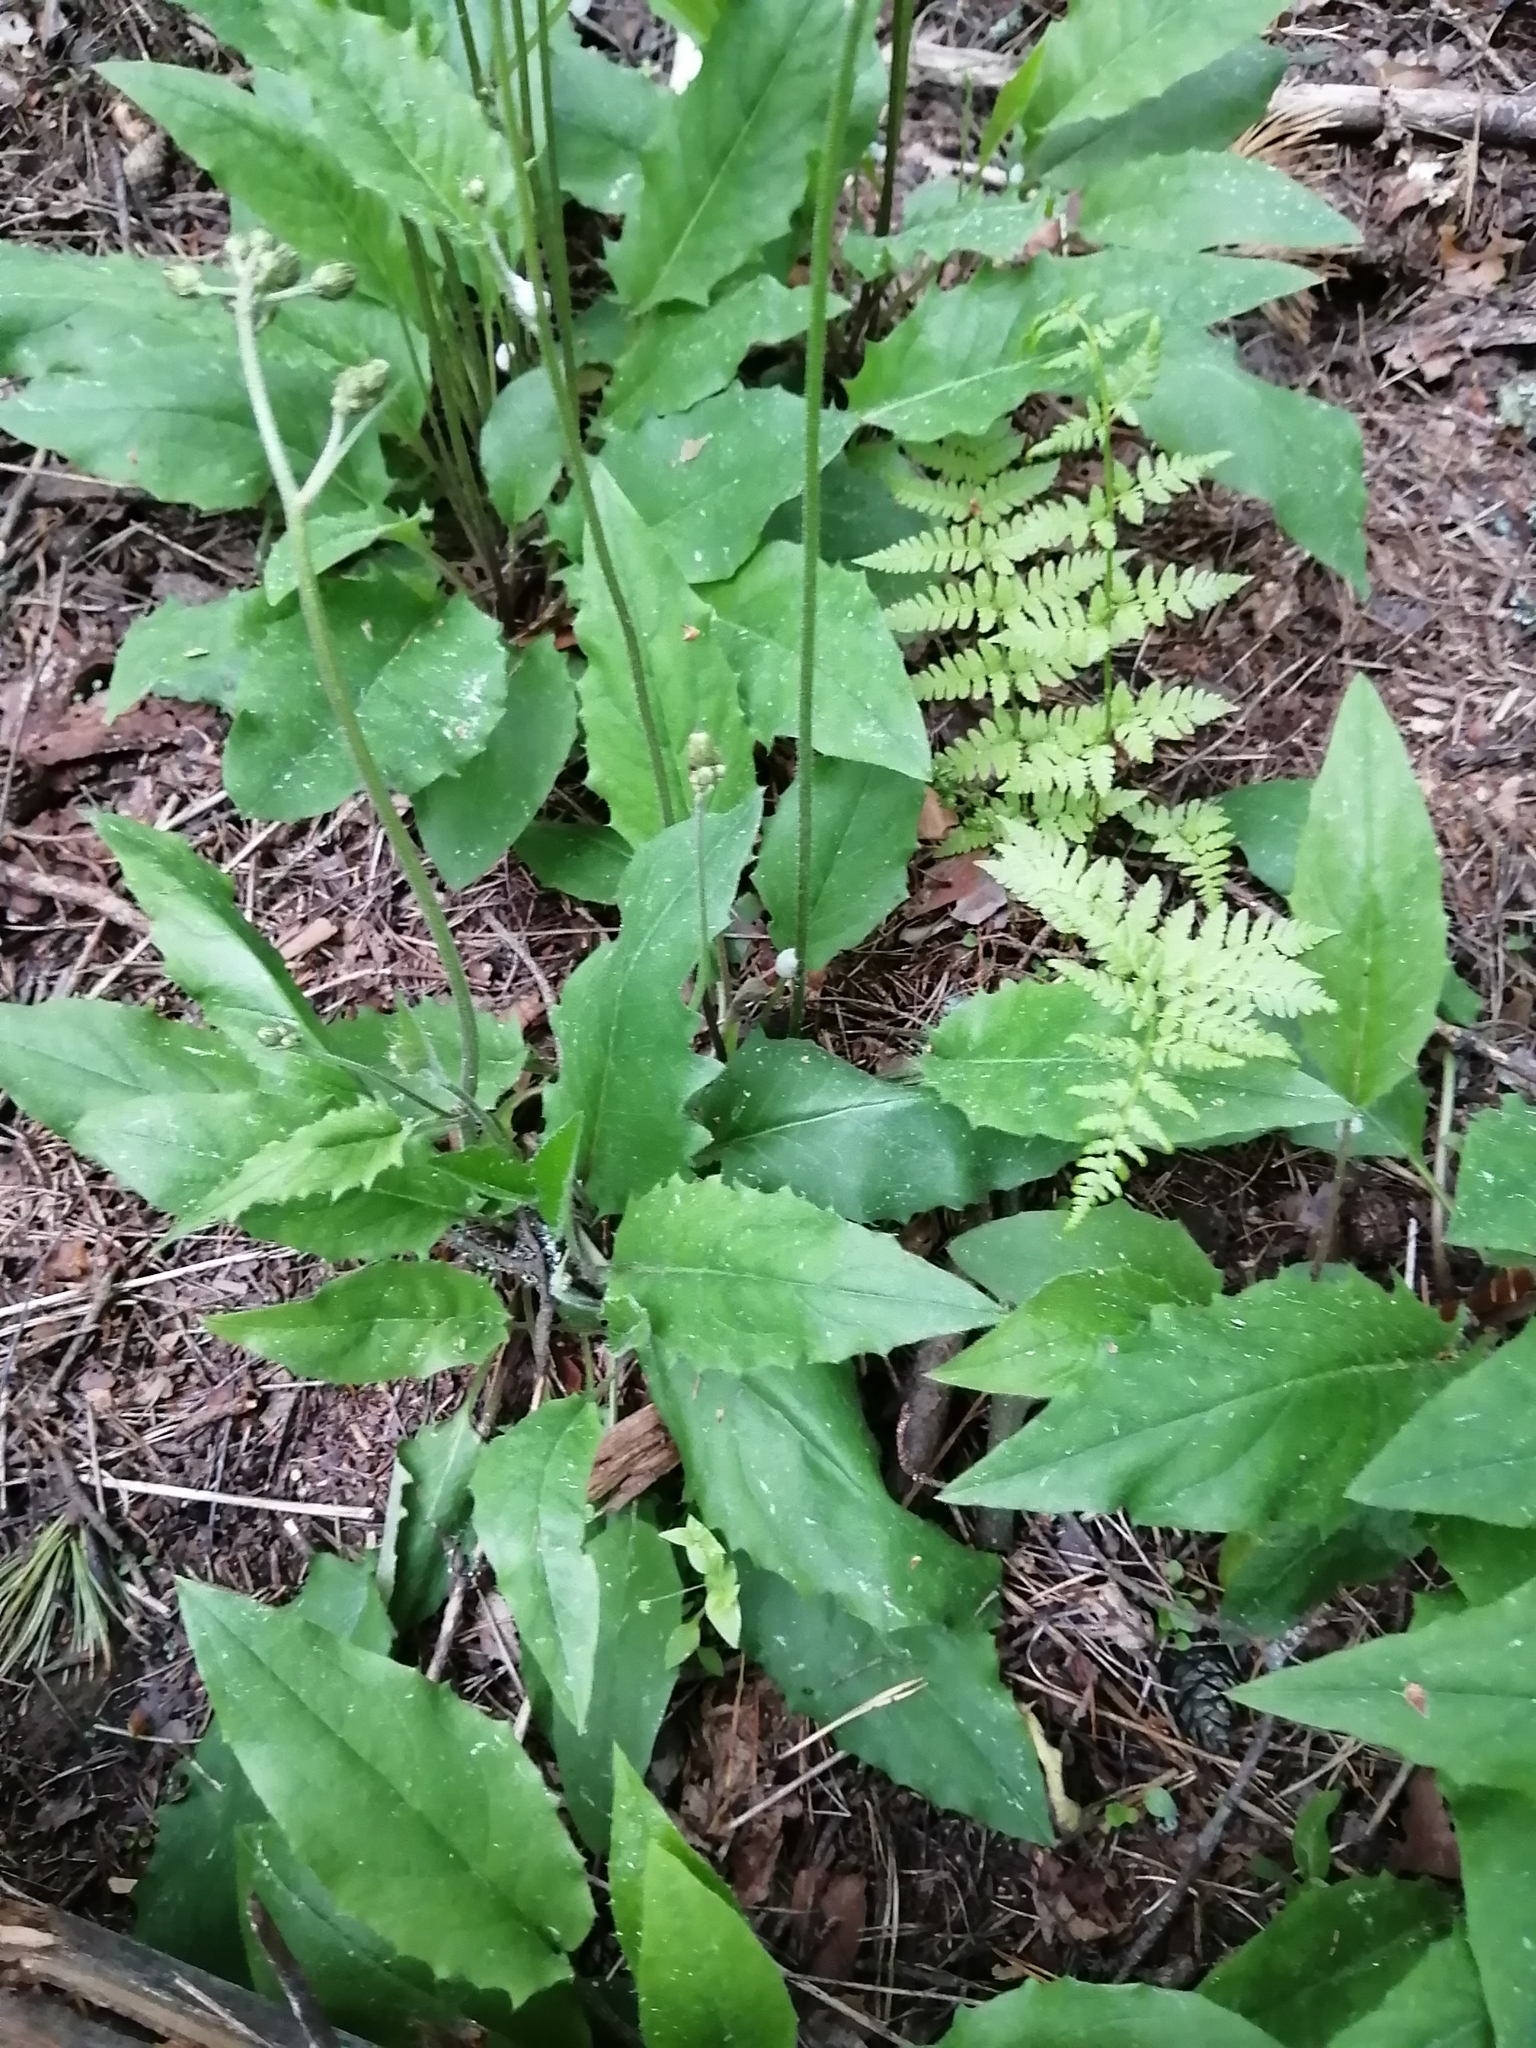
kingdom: Plantae
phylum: Tracheophyta
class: Magnoliopsida
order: Asterales
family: Asteraceae
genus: Hieracium
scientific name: Hieracium murorum
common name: Wall hawkweed
